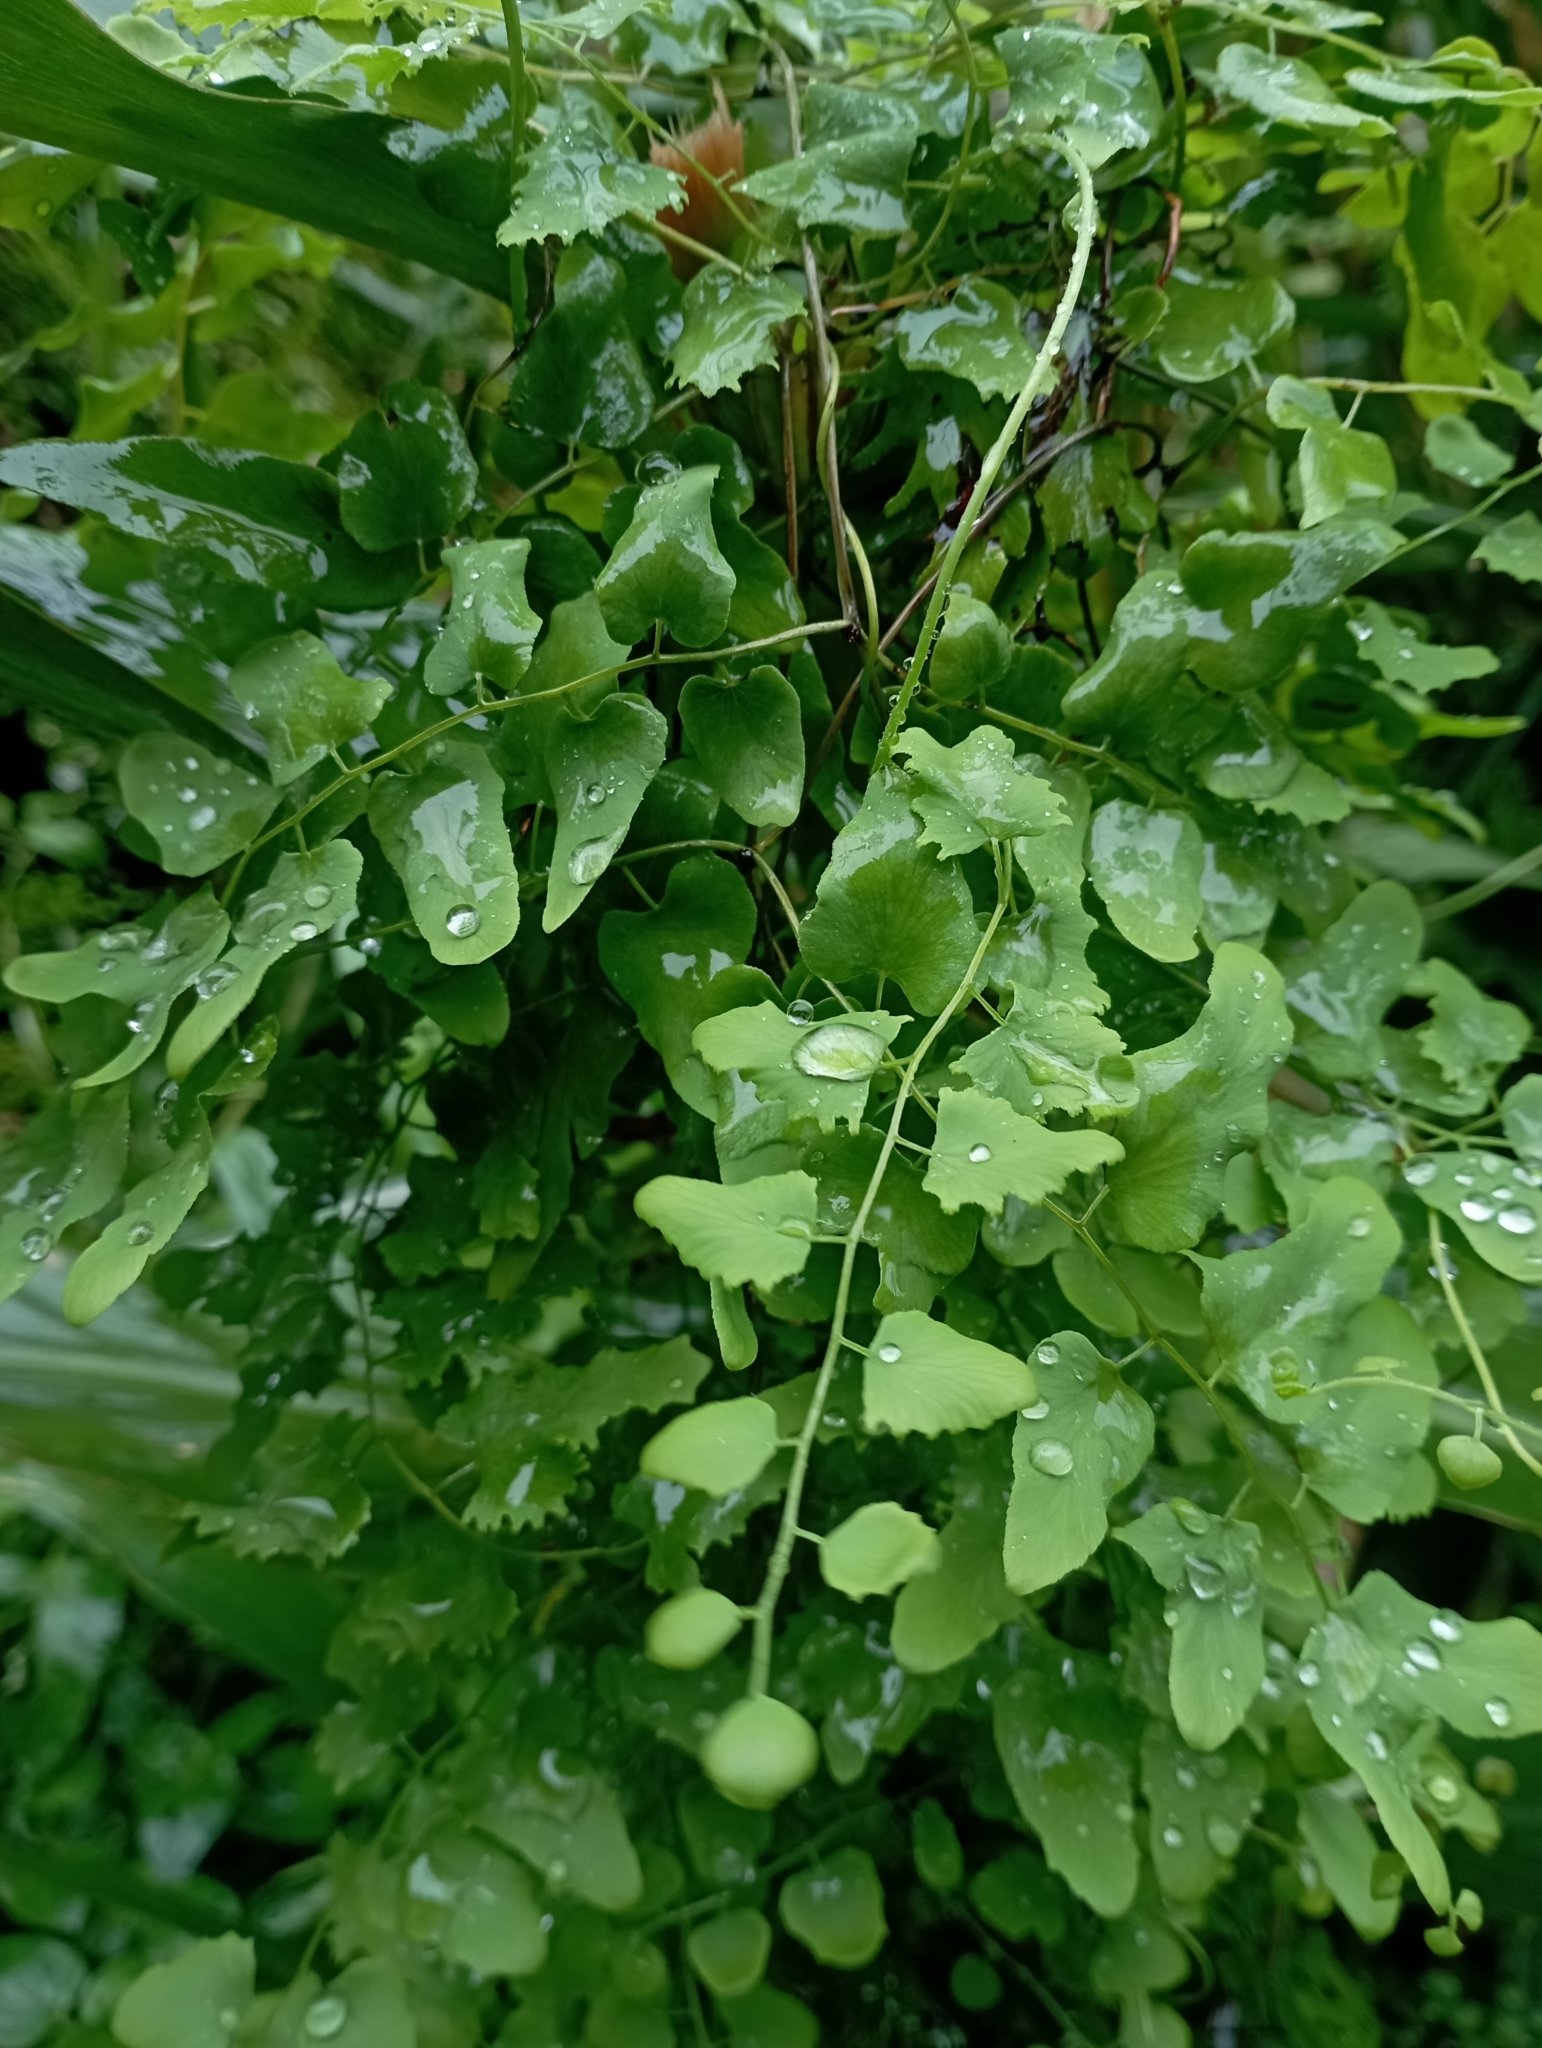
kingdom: Plantae
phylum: Tracheophyta
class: Polypodiopsida
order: Schizaeales
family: Lygodiaceae
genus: Lygodium
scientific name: Lygodium microphyllum
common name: Small-leaf climbing fern
